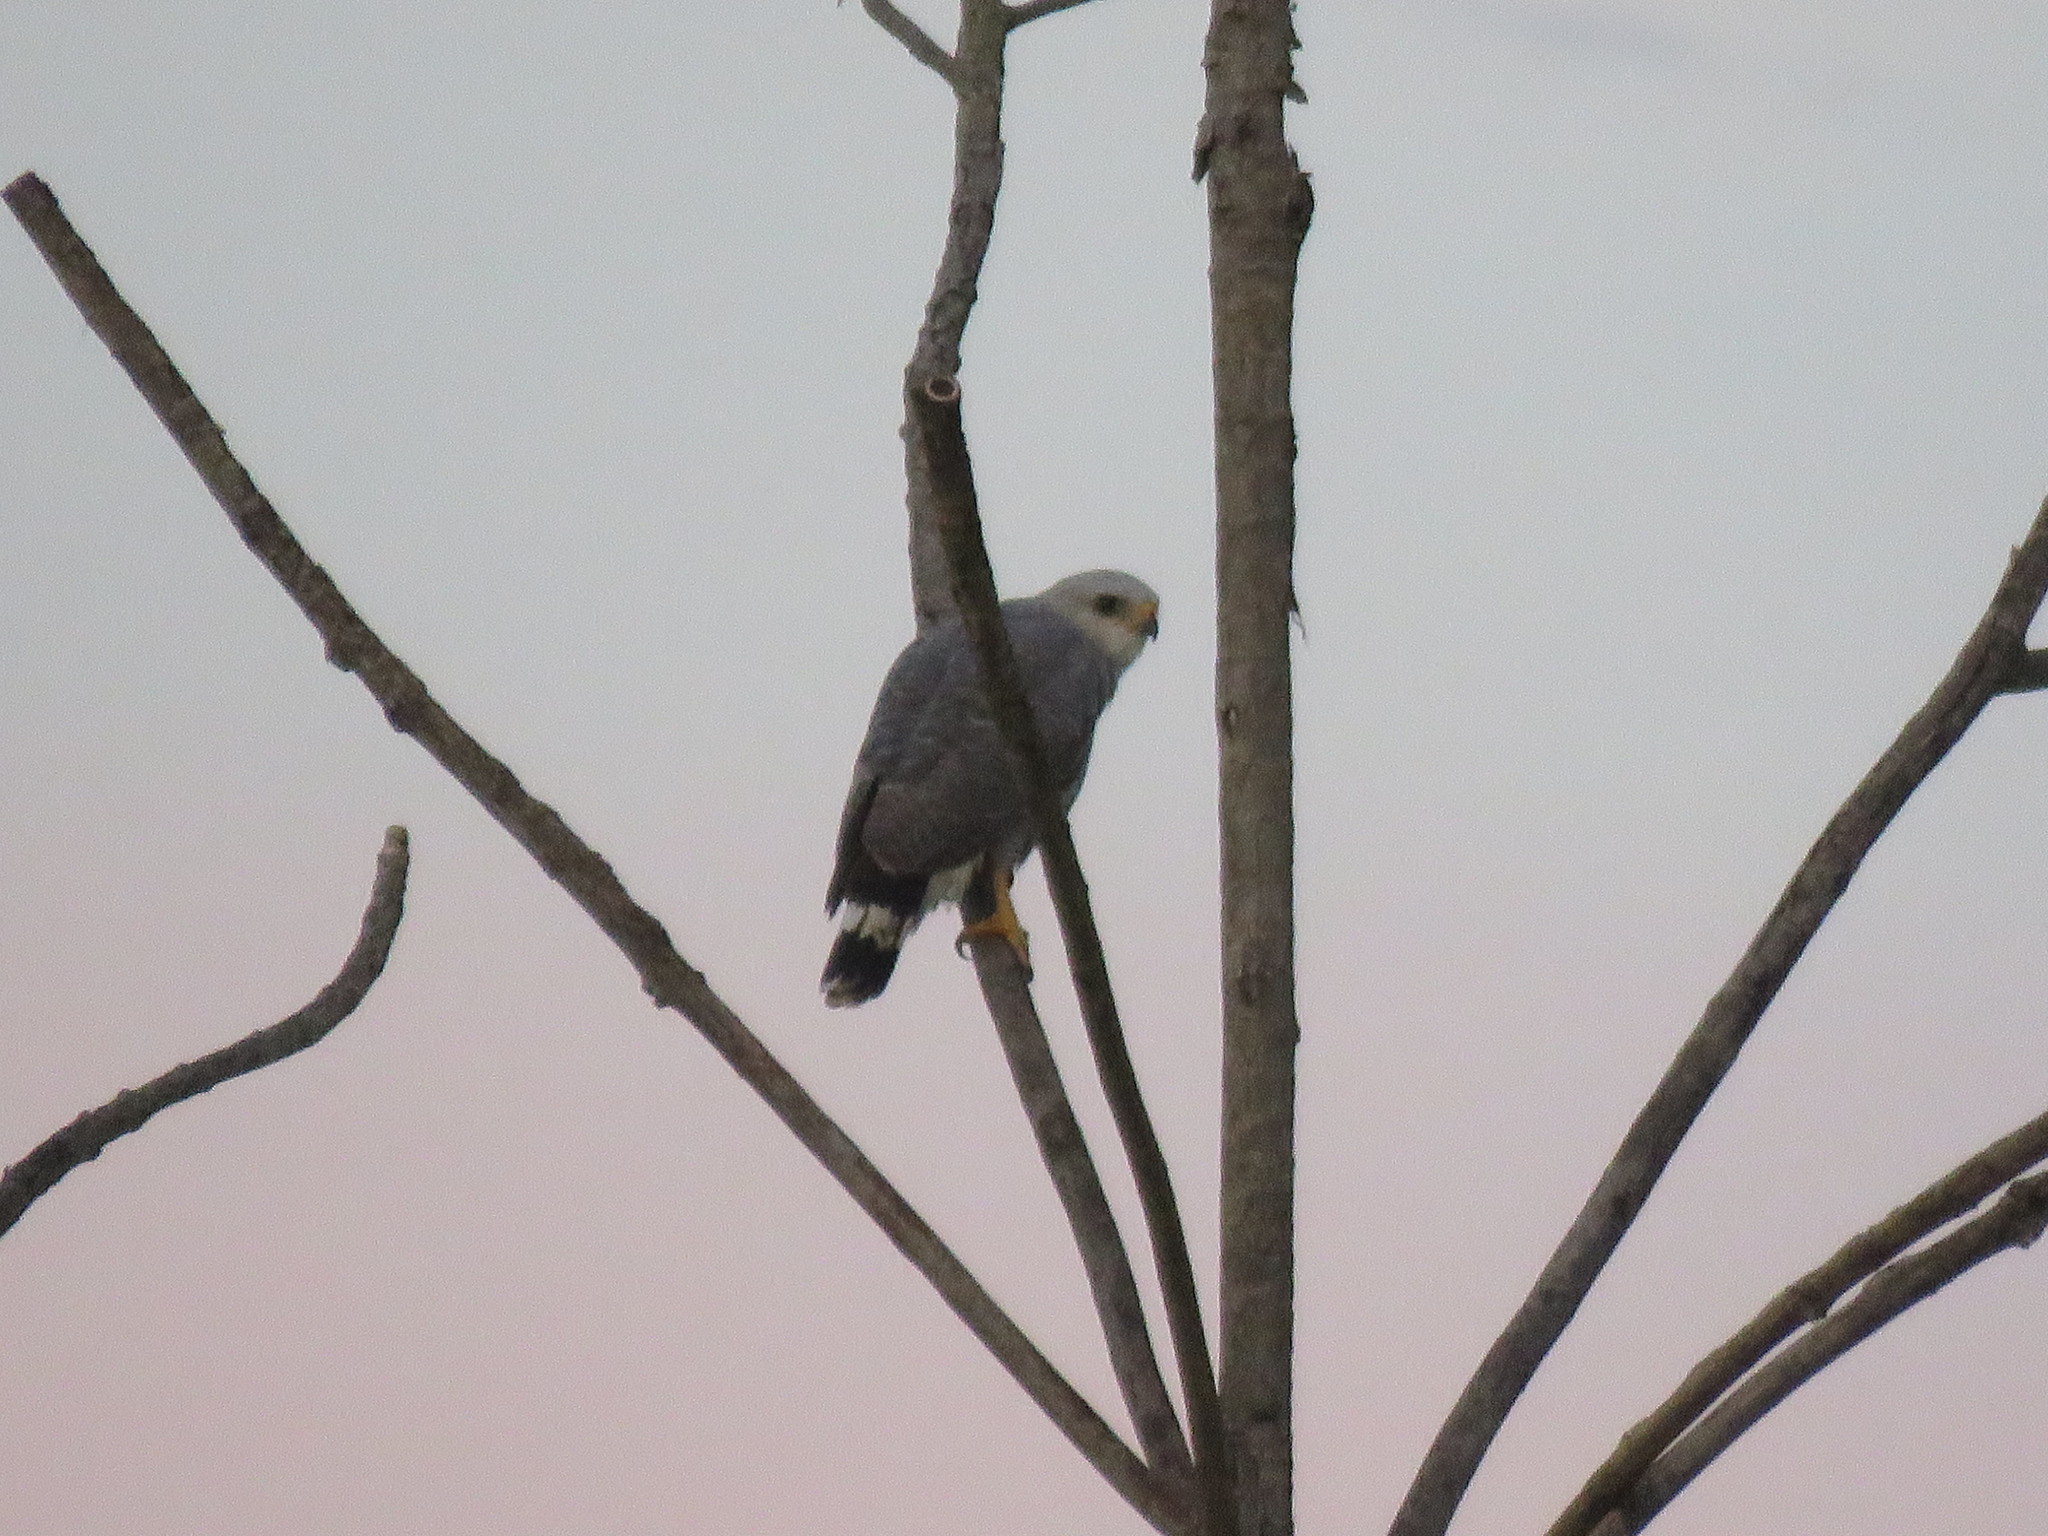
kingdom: Animalia
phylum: Chordata
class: Aves
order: Accipitriformes
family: Accipitridae
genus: Buteo
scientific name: Buteo nitidus
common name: Grey-lined hawk
